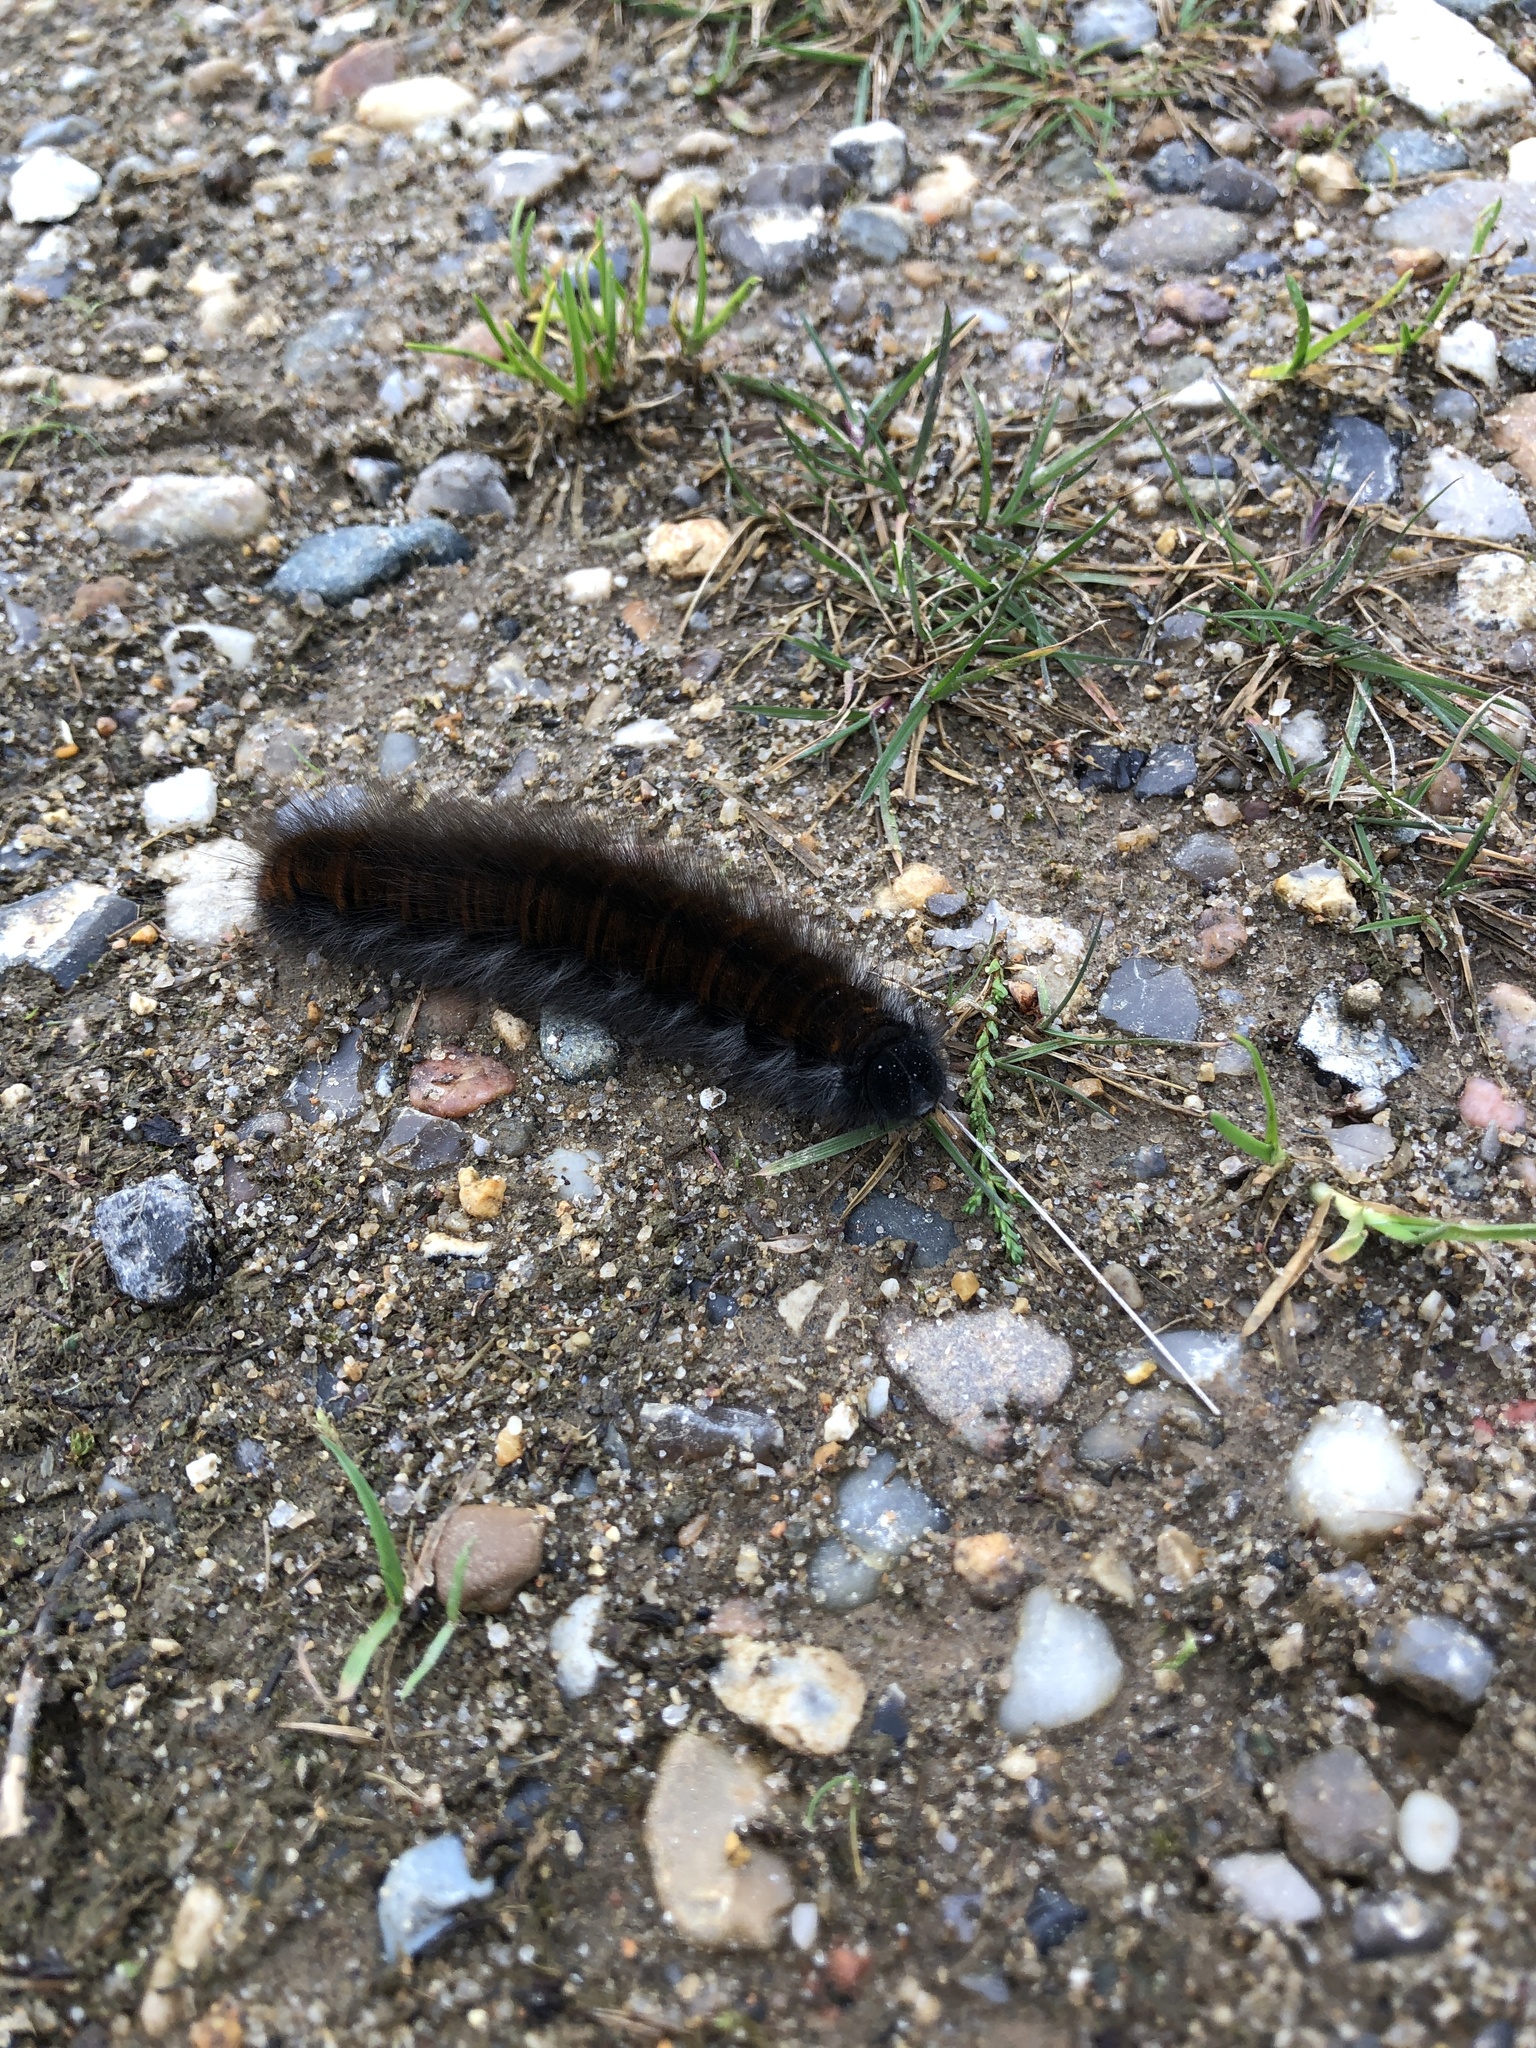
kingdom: Animalia
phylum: Arthropoda
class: Insecta
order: Lepidoptera
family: Lasiocampidae
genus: Macrothylacia
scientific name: Macrothylacia rubi
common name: Fox moth
